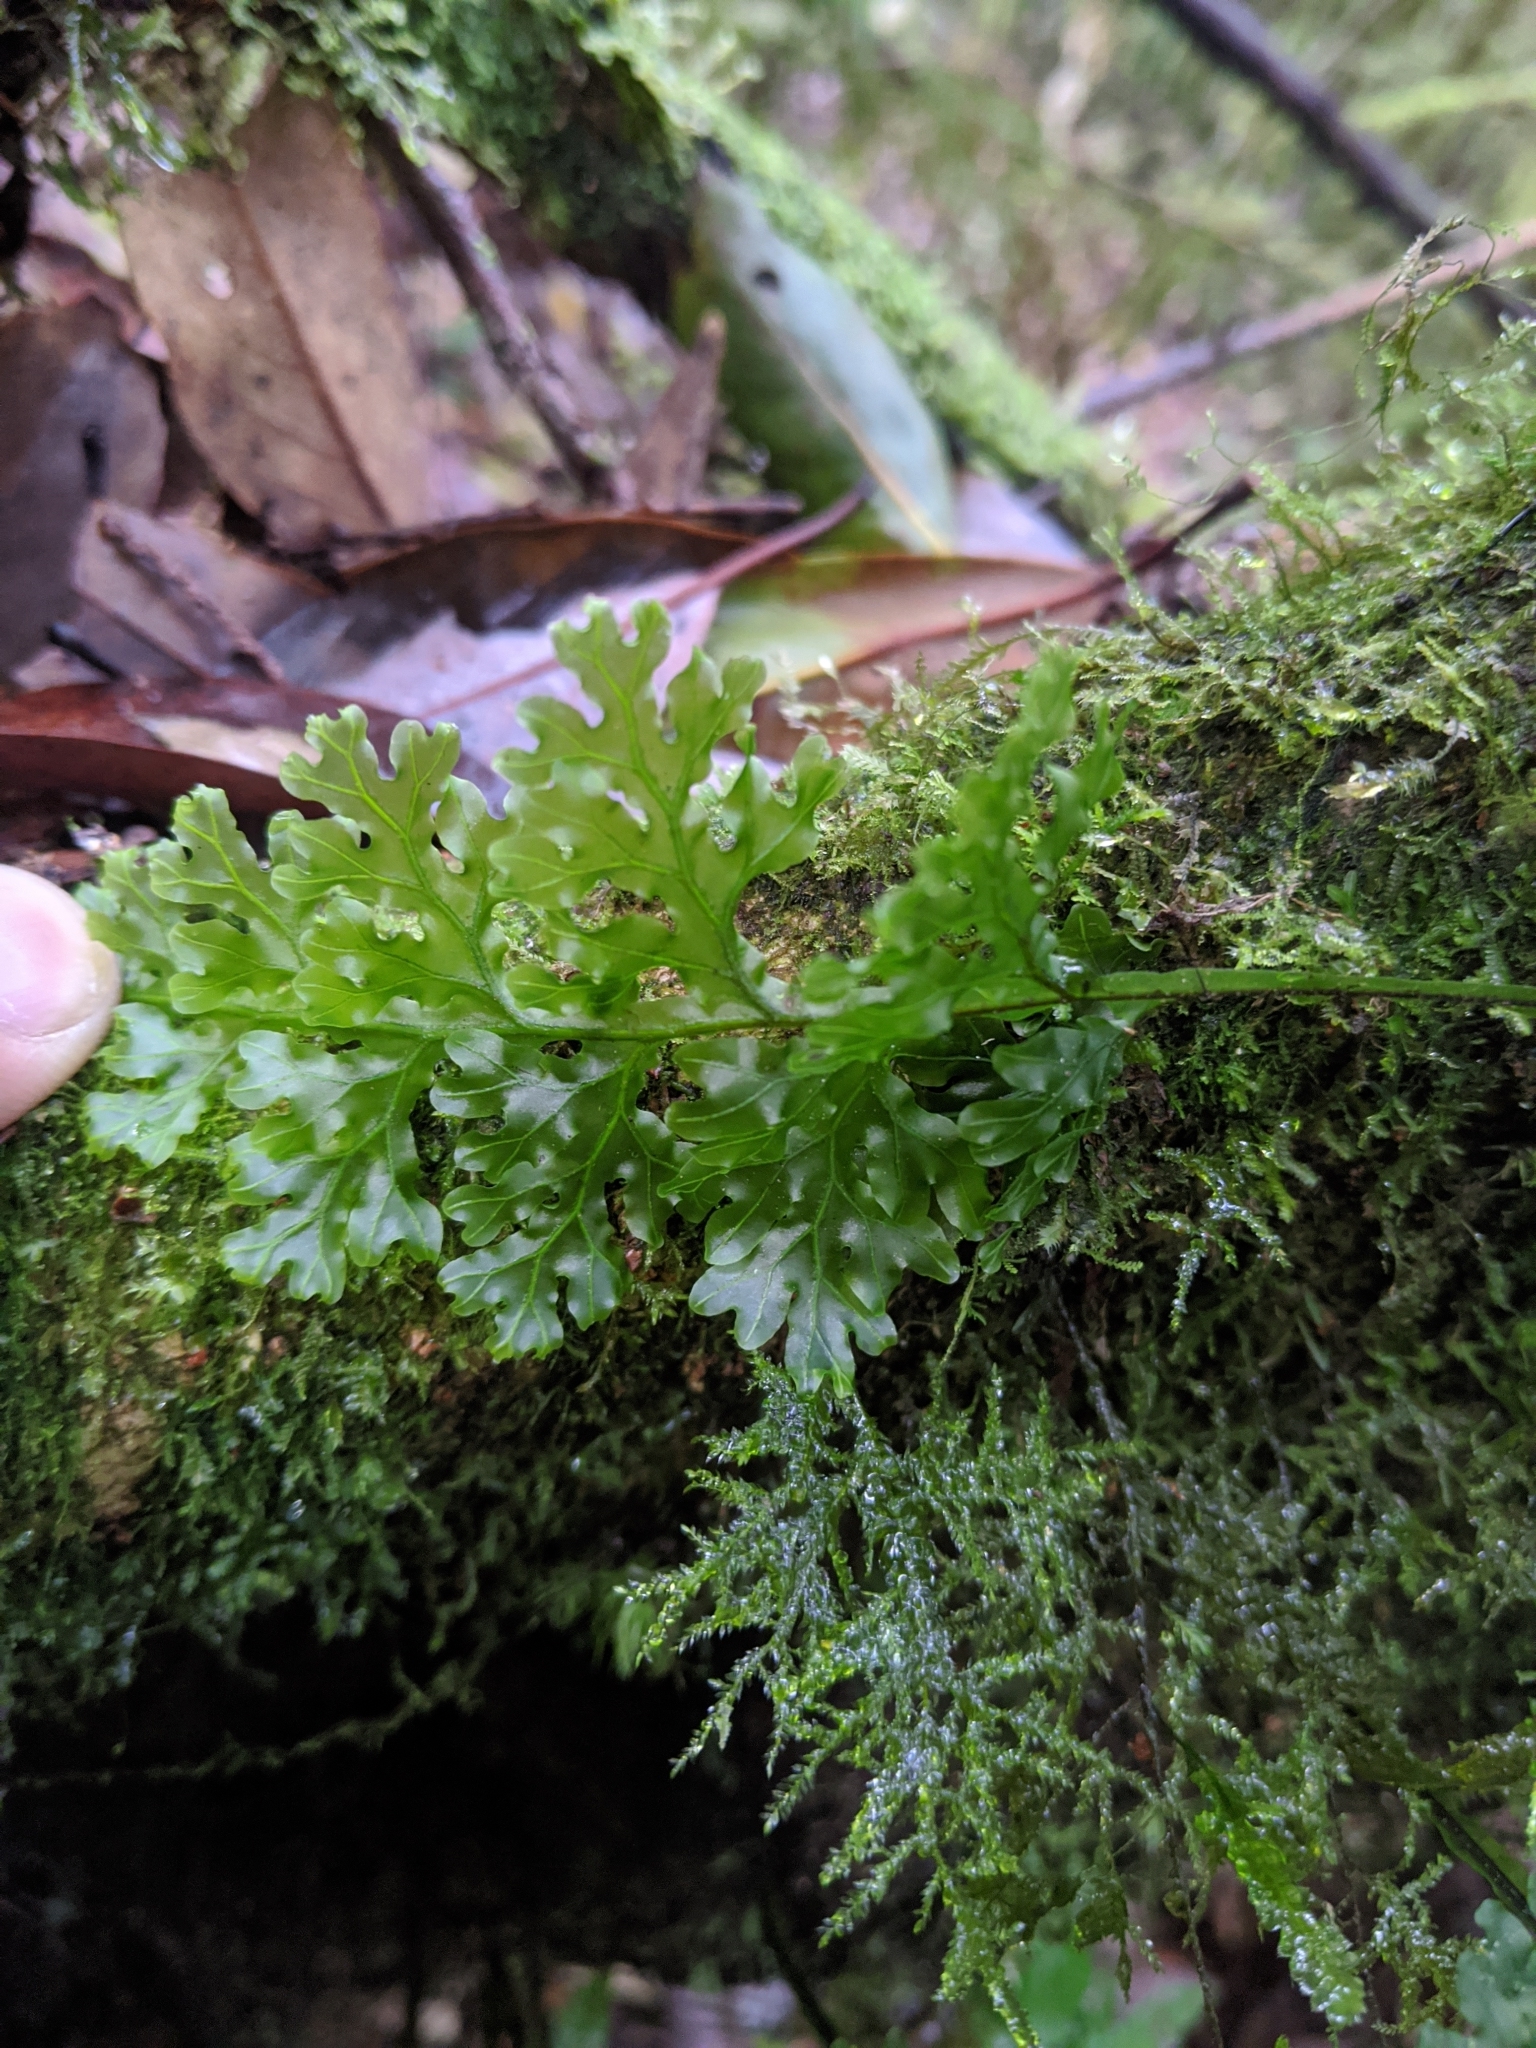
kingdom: Plantae
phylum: Tracheophyta
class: Polypodiopsida
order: Hymenophyllales
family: Hymenophyllaceae
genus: Hymenophyllum
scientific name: Hymenophyllum badium
